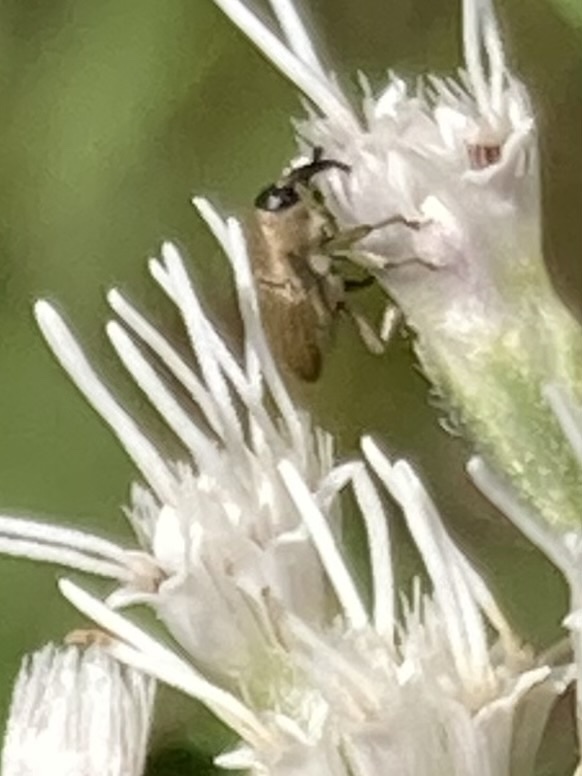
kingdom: Animalia
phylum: Arthropoda
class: Insecta
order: Coleoptera
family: Curculionidae
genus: Geraeus
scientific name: Geraeus picumnus
